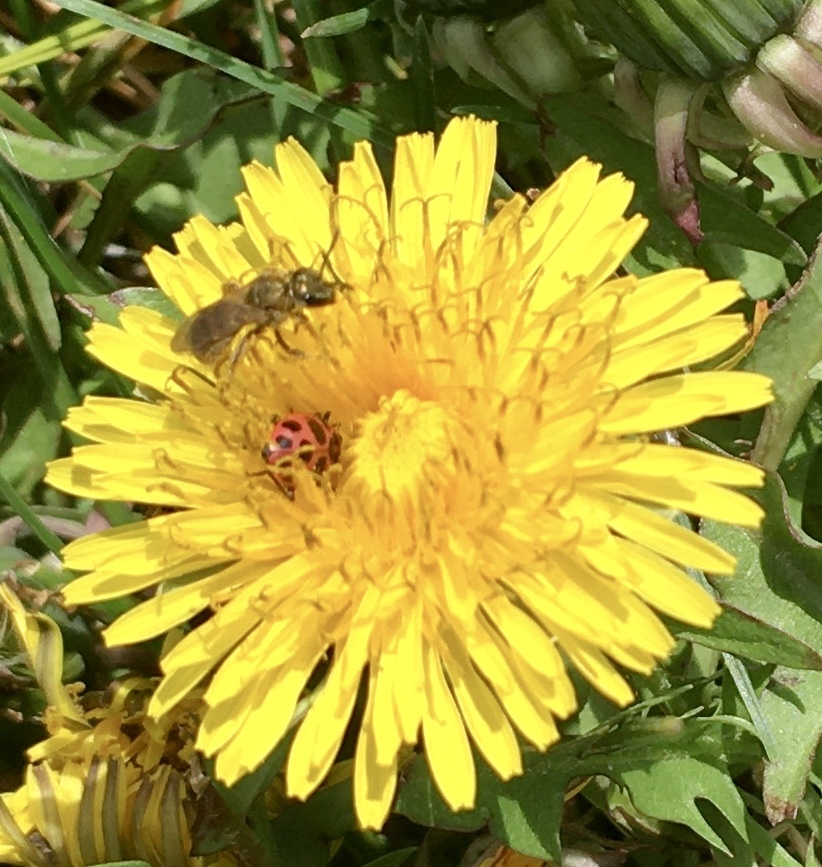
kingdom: Animalia
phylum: Arthropoda
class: Insecta
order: Hymenoptera
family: Halictidae
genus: Dialictus
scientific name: Dialictus
